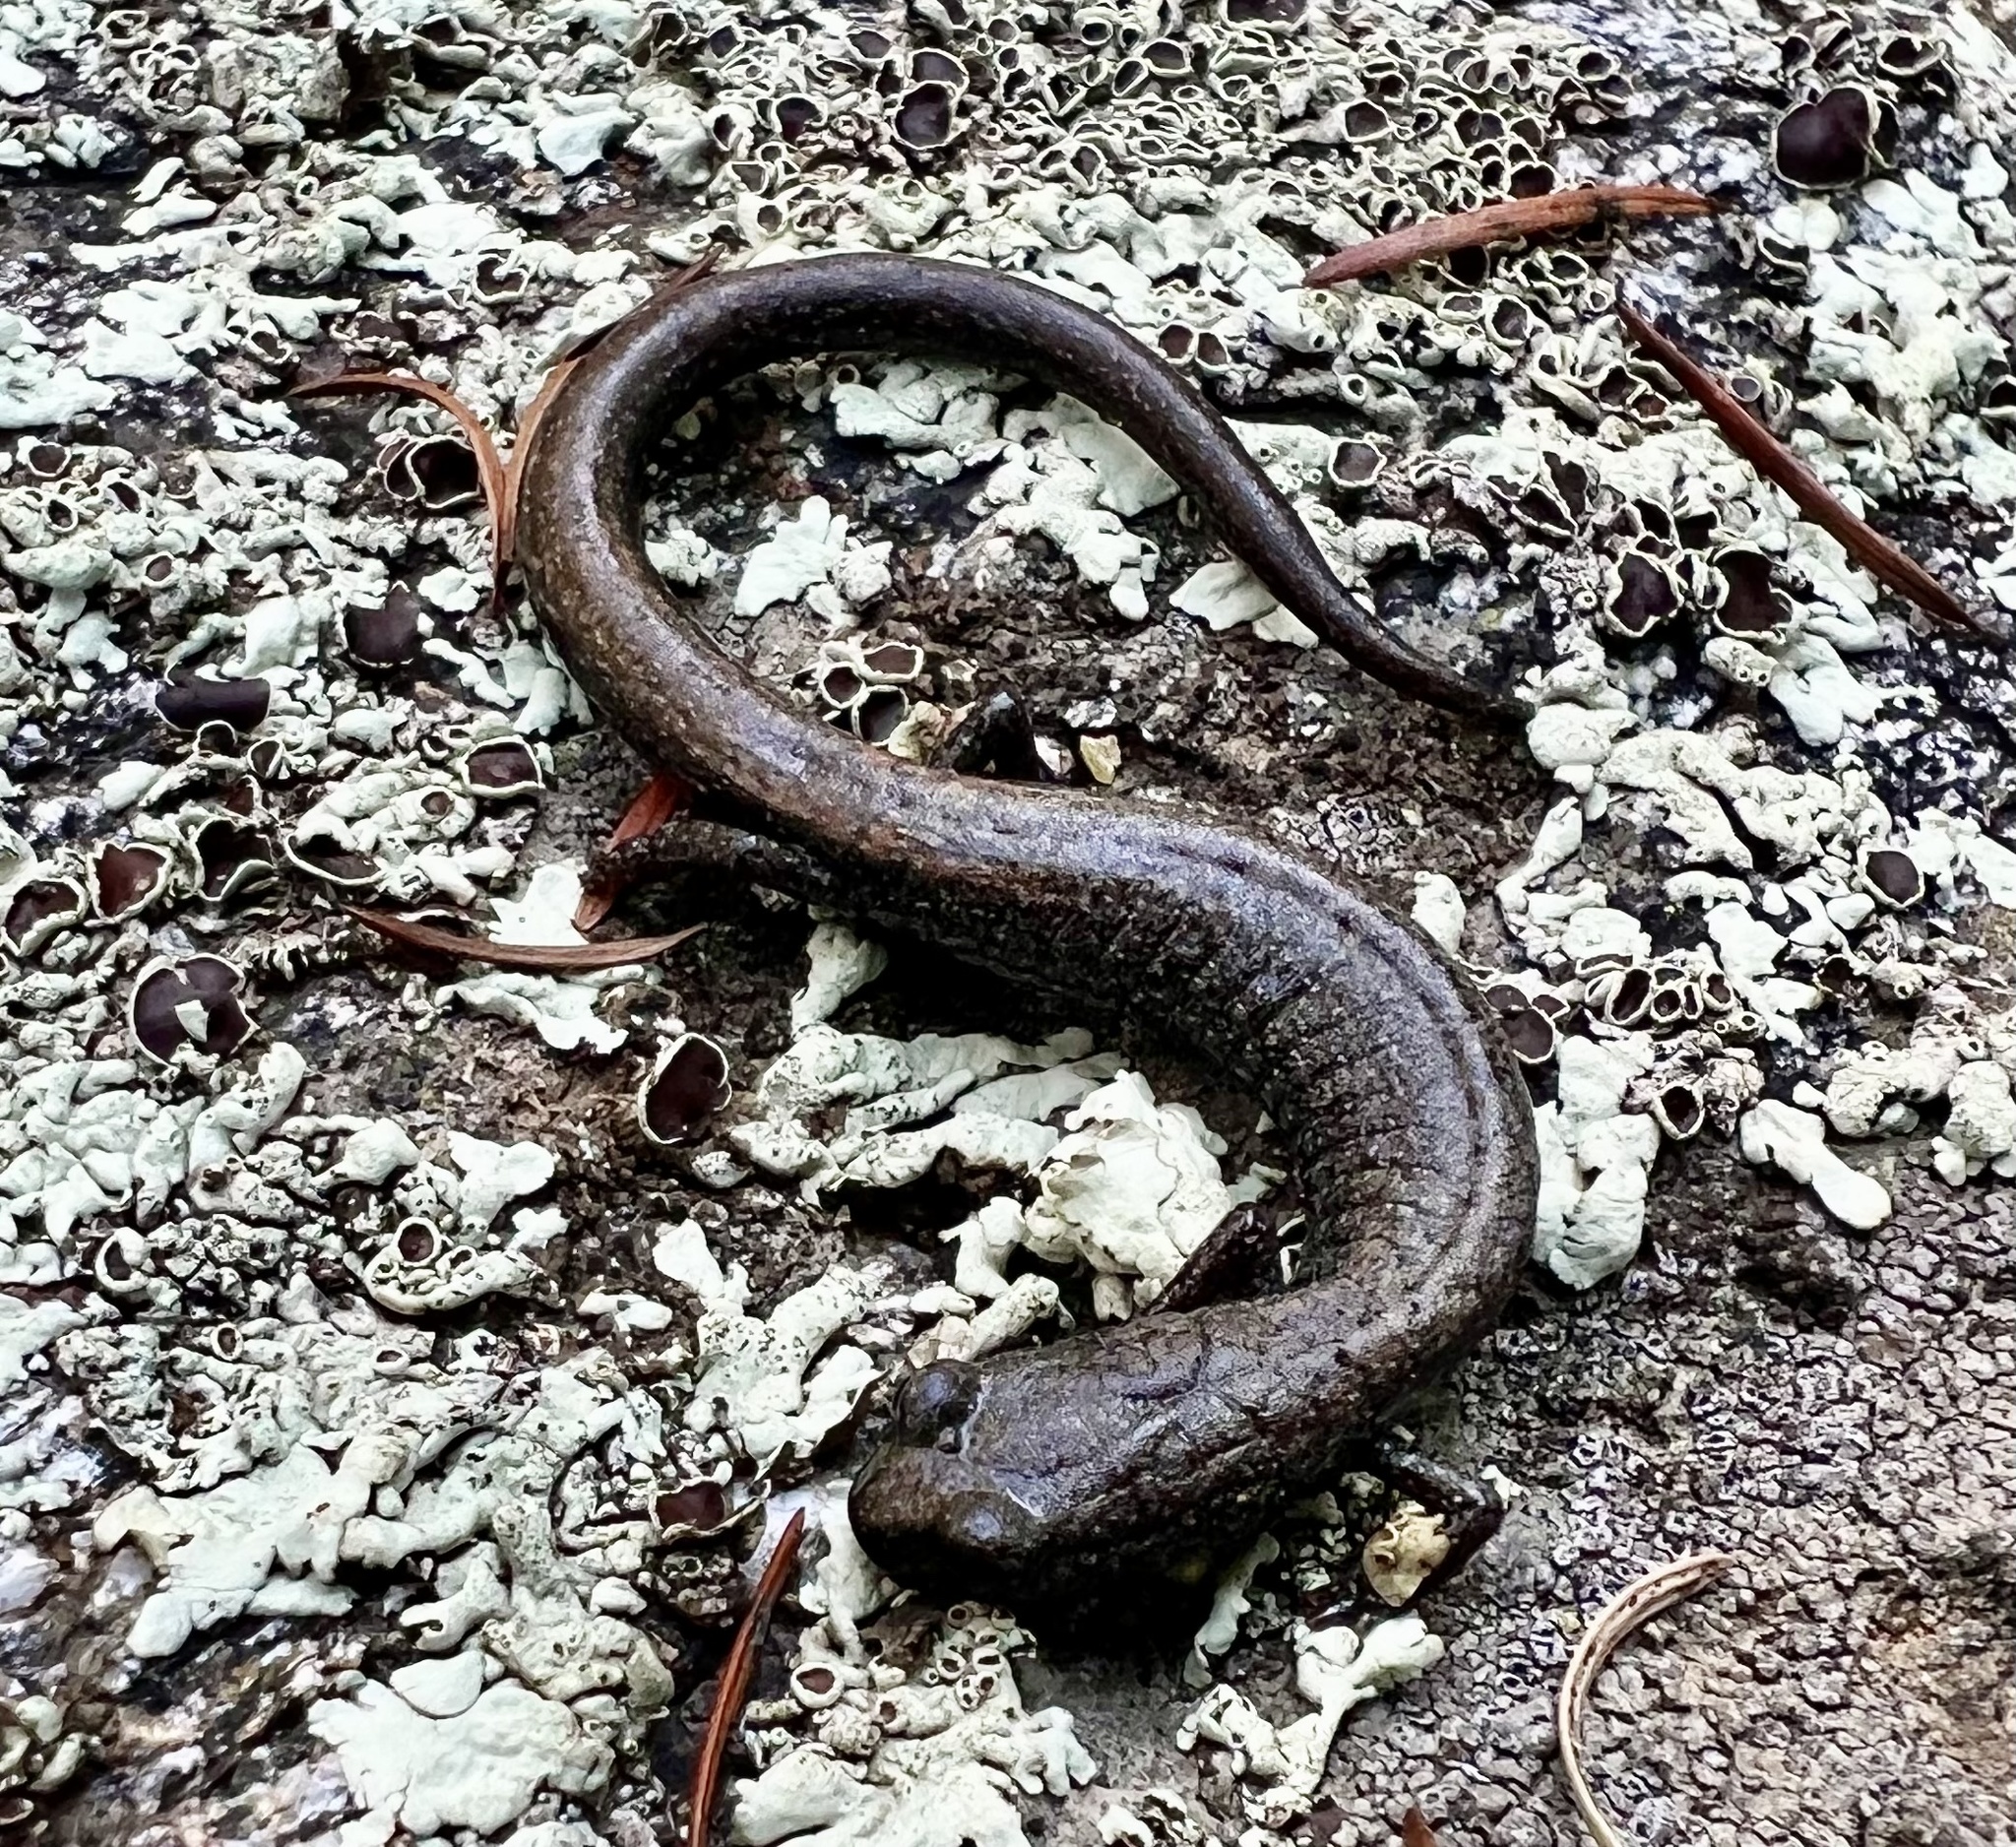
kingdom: Animalia
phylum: Chordata
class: Amphibia
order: Caudata
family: Plethodontidae
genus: Batrachoseps
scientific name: Batrachoseps gabrieli
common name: San gabriel mountains slender salamander
